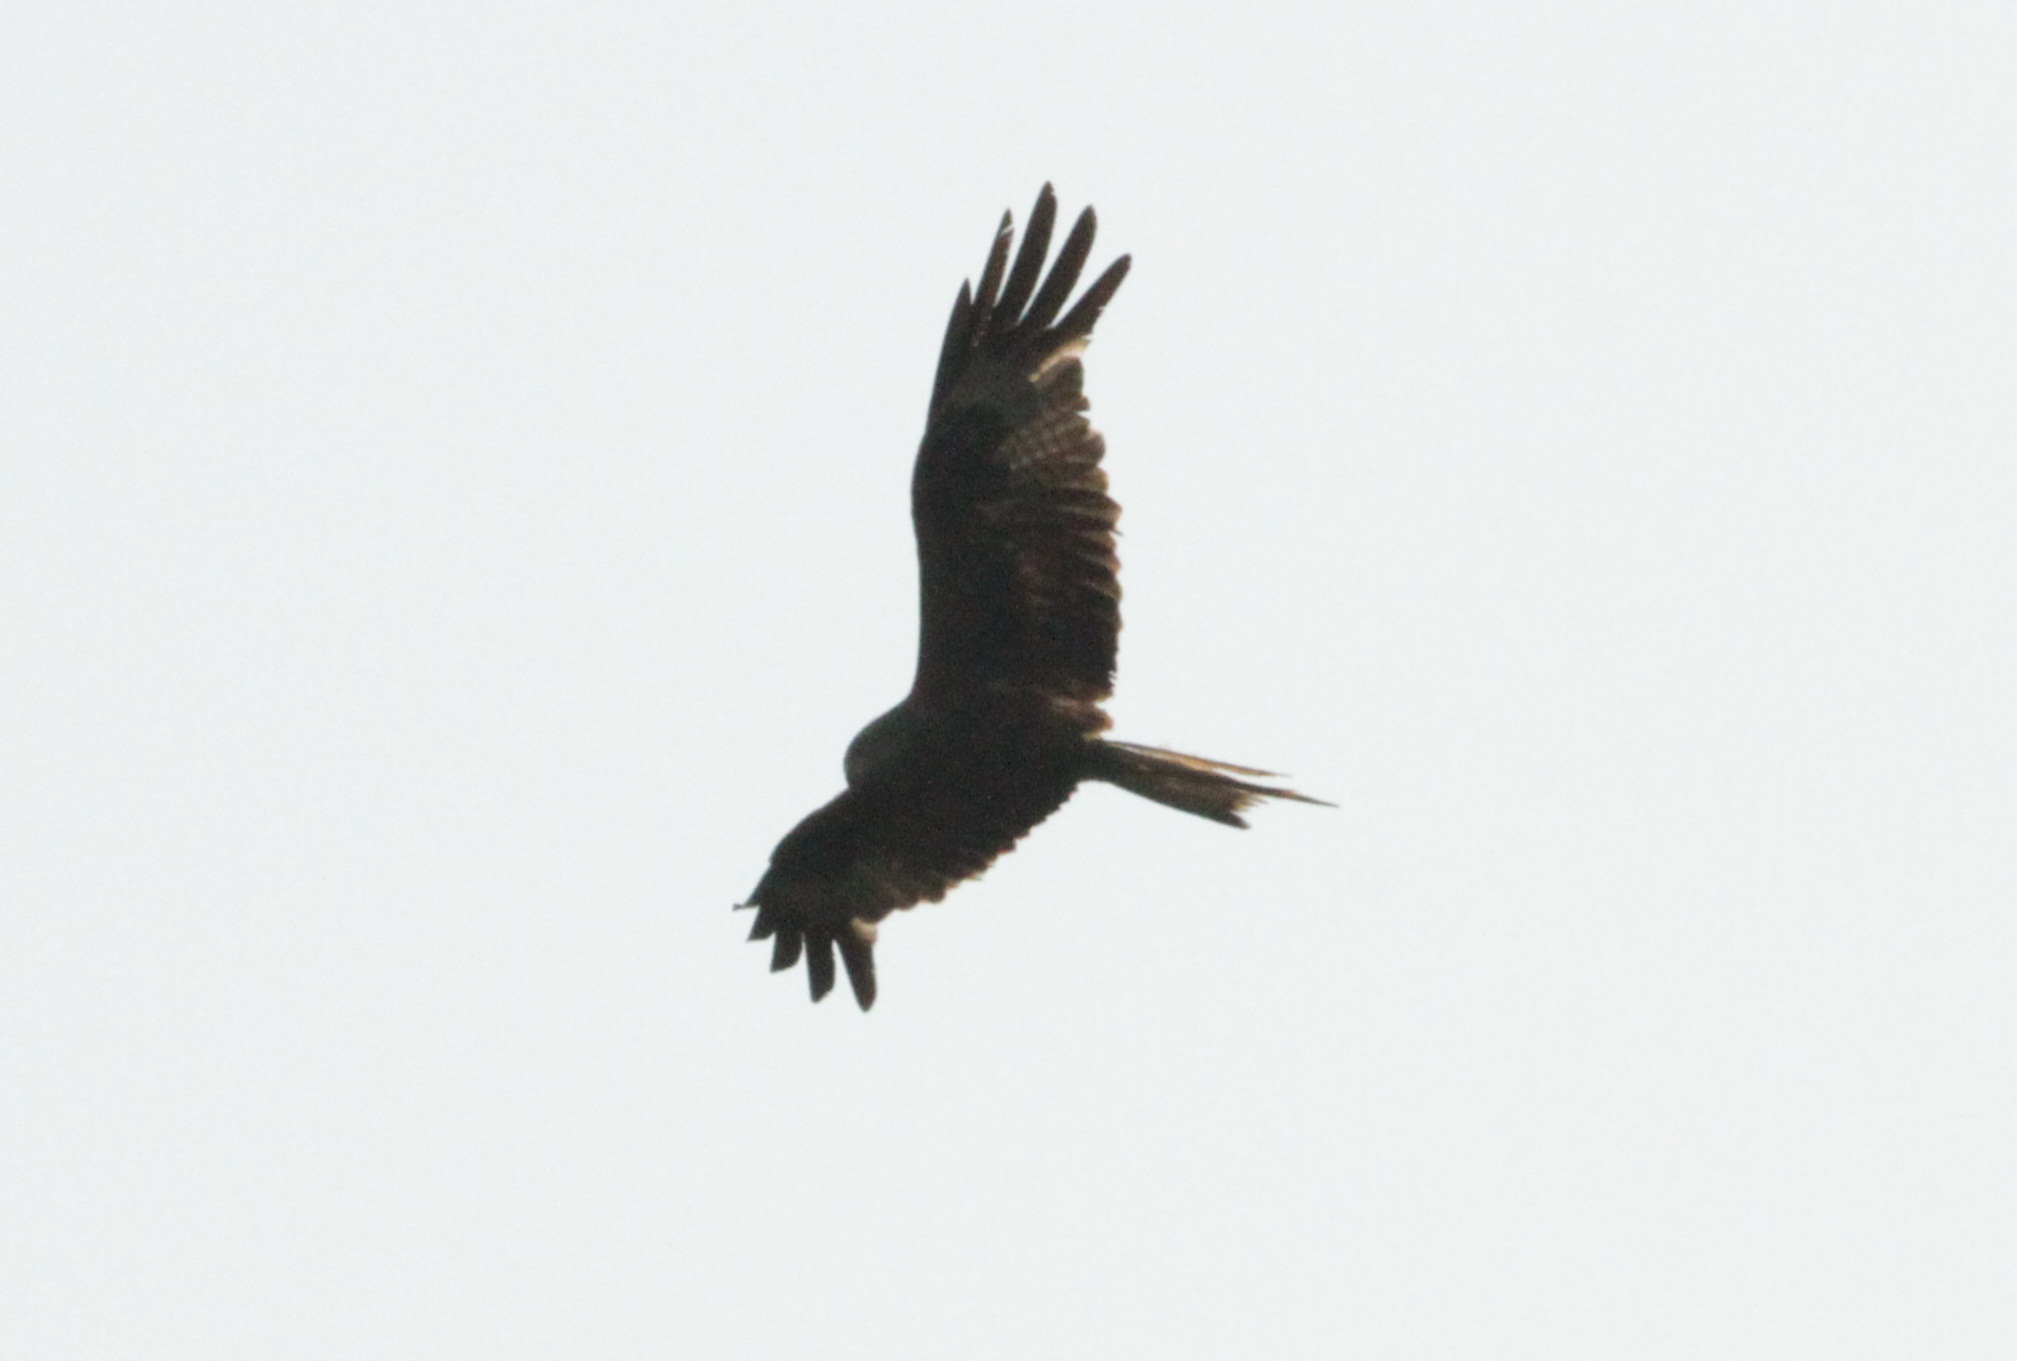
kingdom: Animalia
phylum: Chordata
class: Aves
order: Accipitriformes
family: Accipitridae
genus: Milvus
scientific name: Milvus milvus
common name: Red kite
